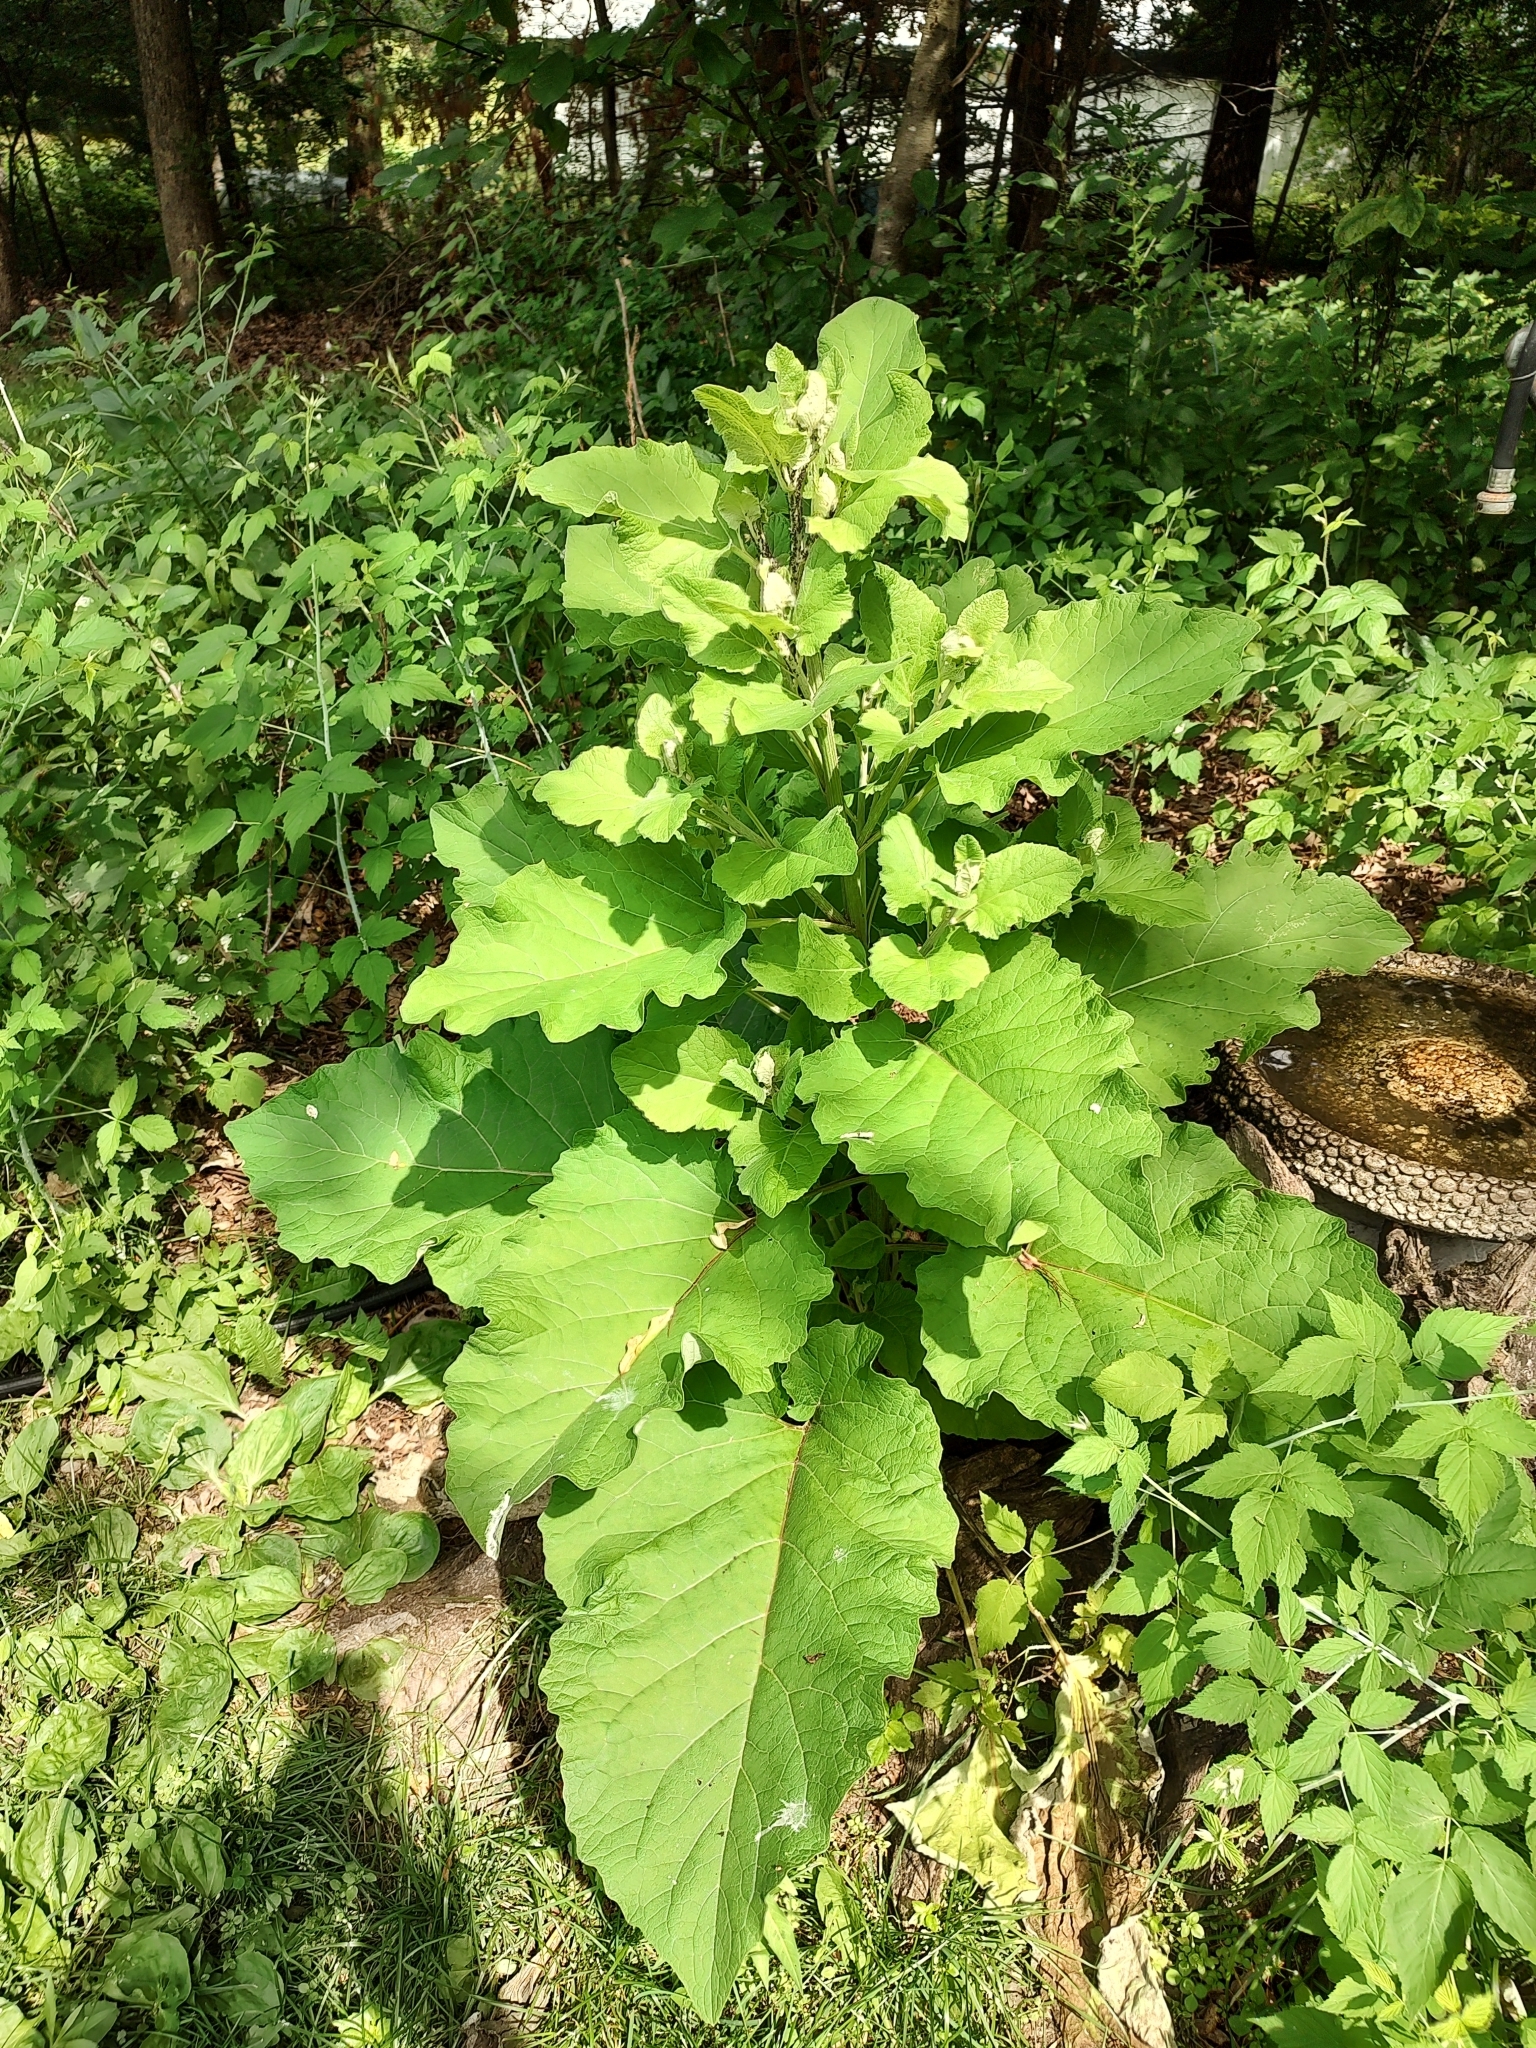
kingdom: Plantae
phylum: Tracheophyta
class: Magnoliopsida
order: Asterales
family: Asteraceae
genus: Arctium
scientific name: Arctium
